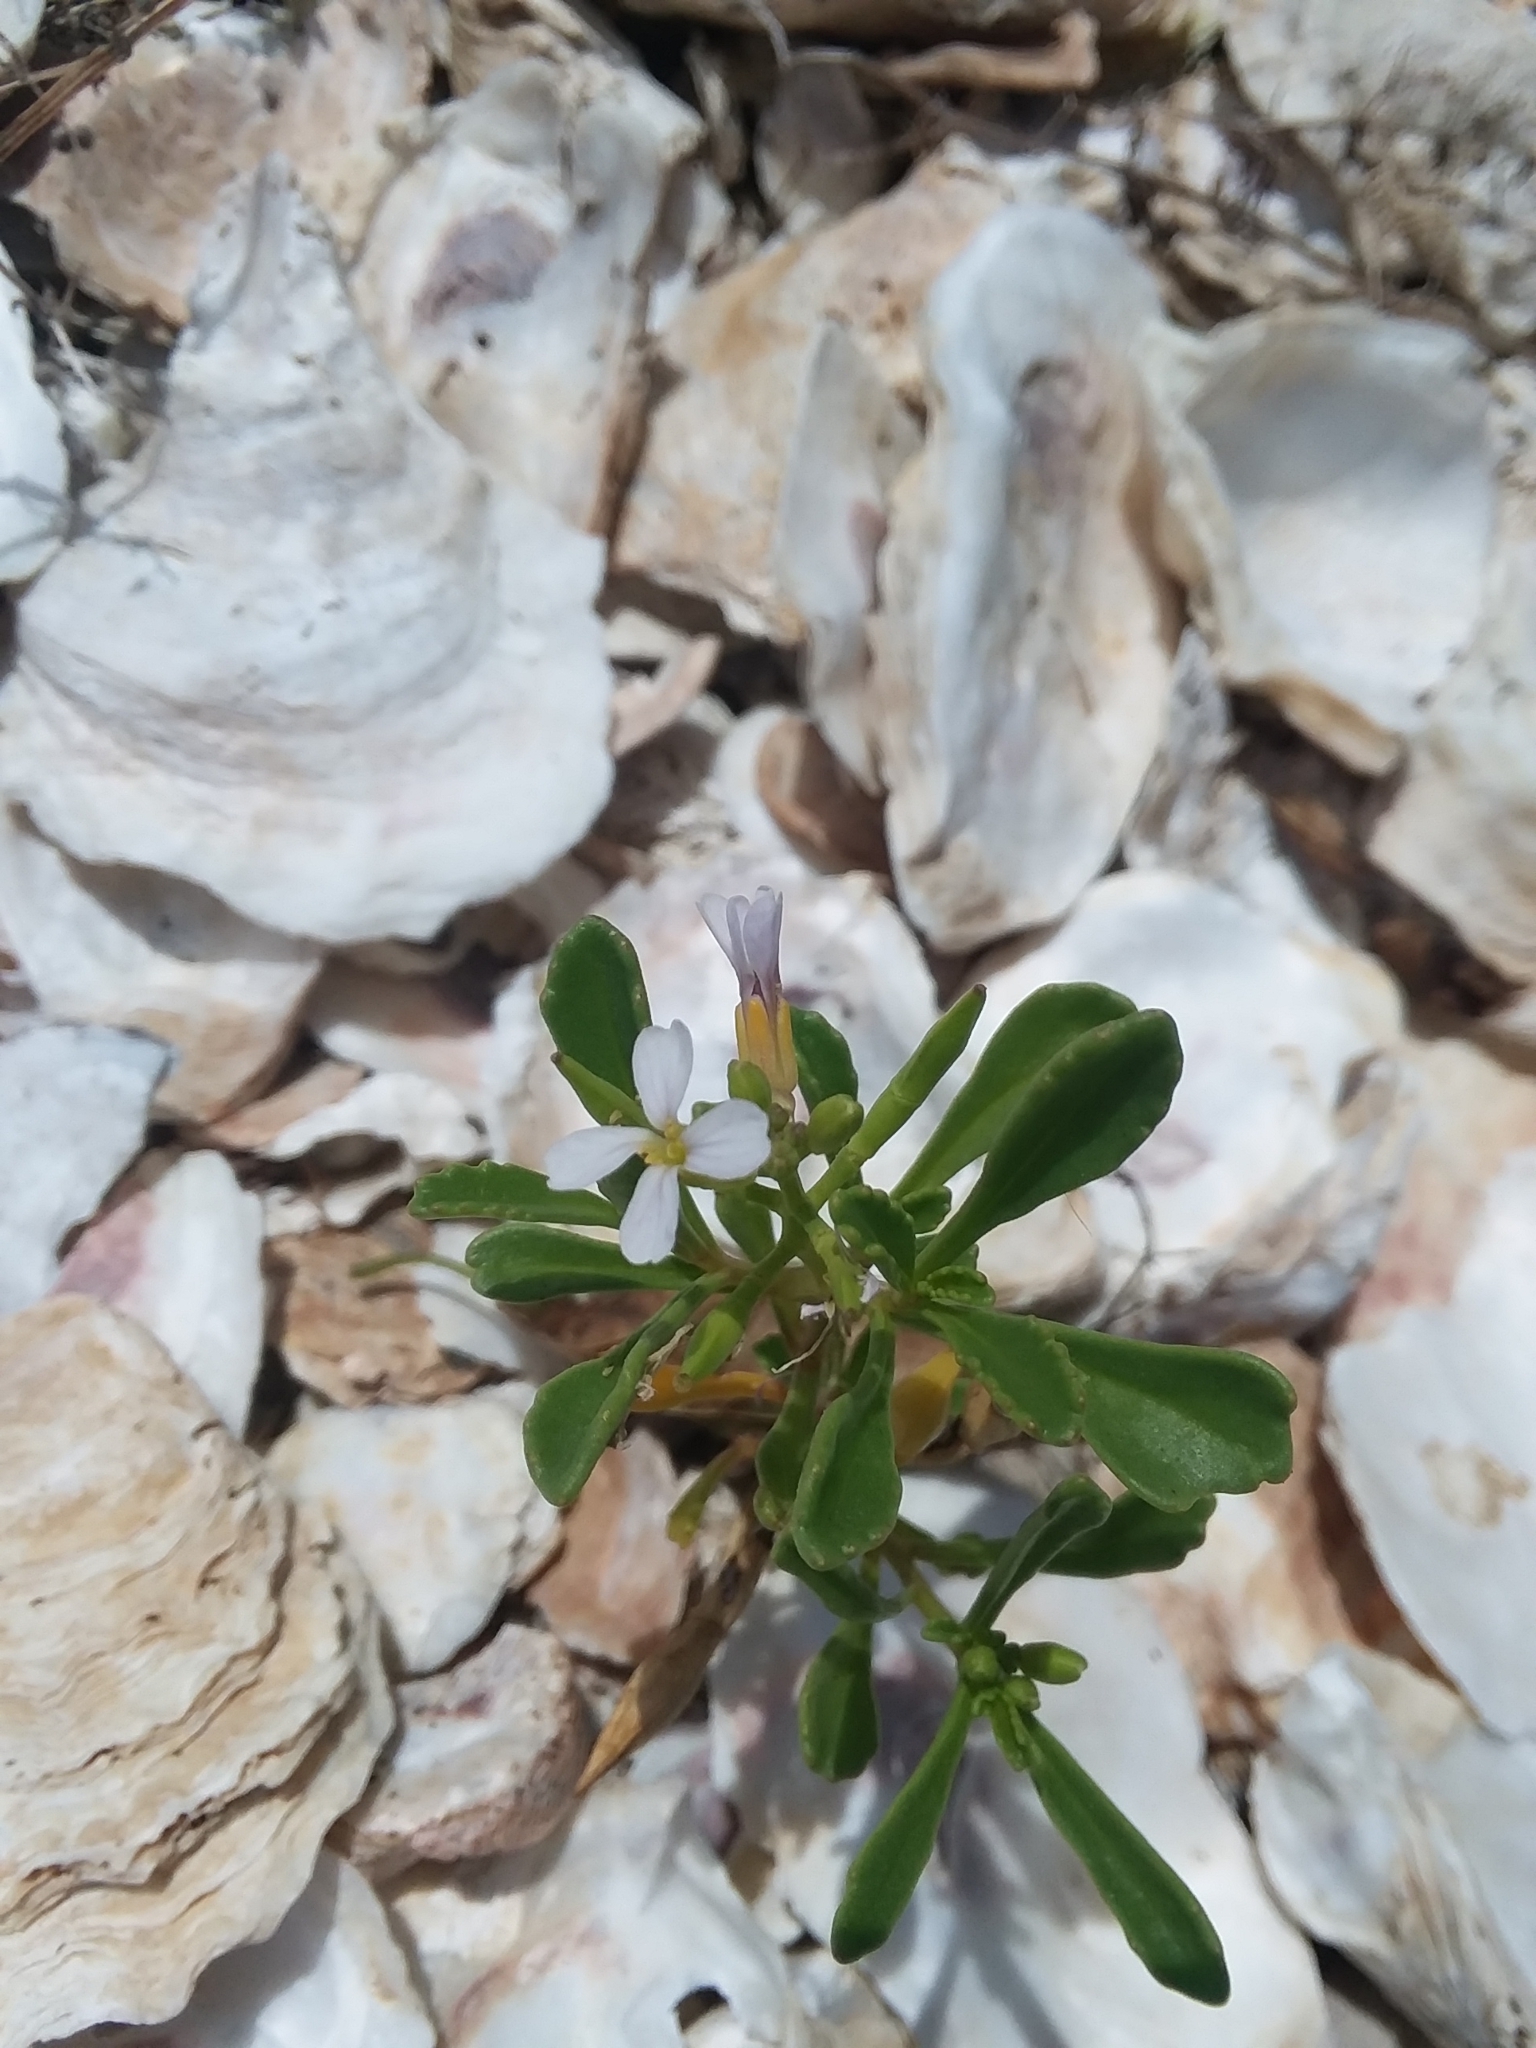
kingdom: Plantae
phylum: Tracheophyta
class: Magnoliopsida
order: Brassicales
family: Brassicaceae
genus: Cakile
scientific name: Cakile constricta
